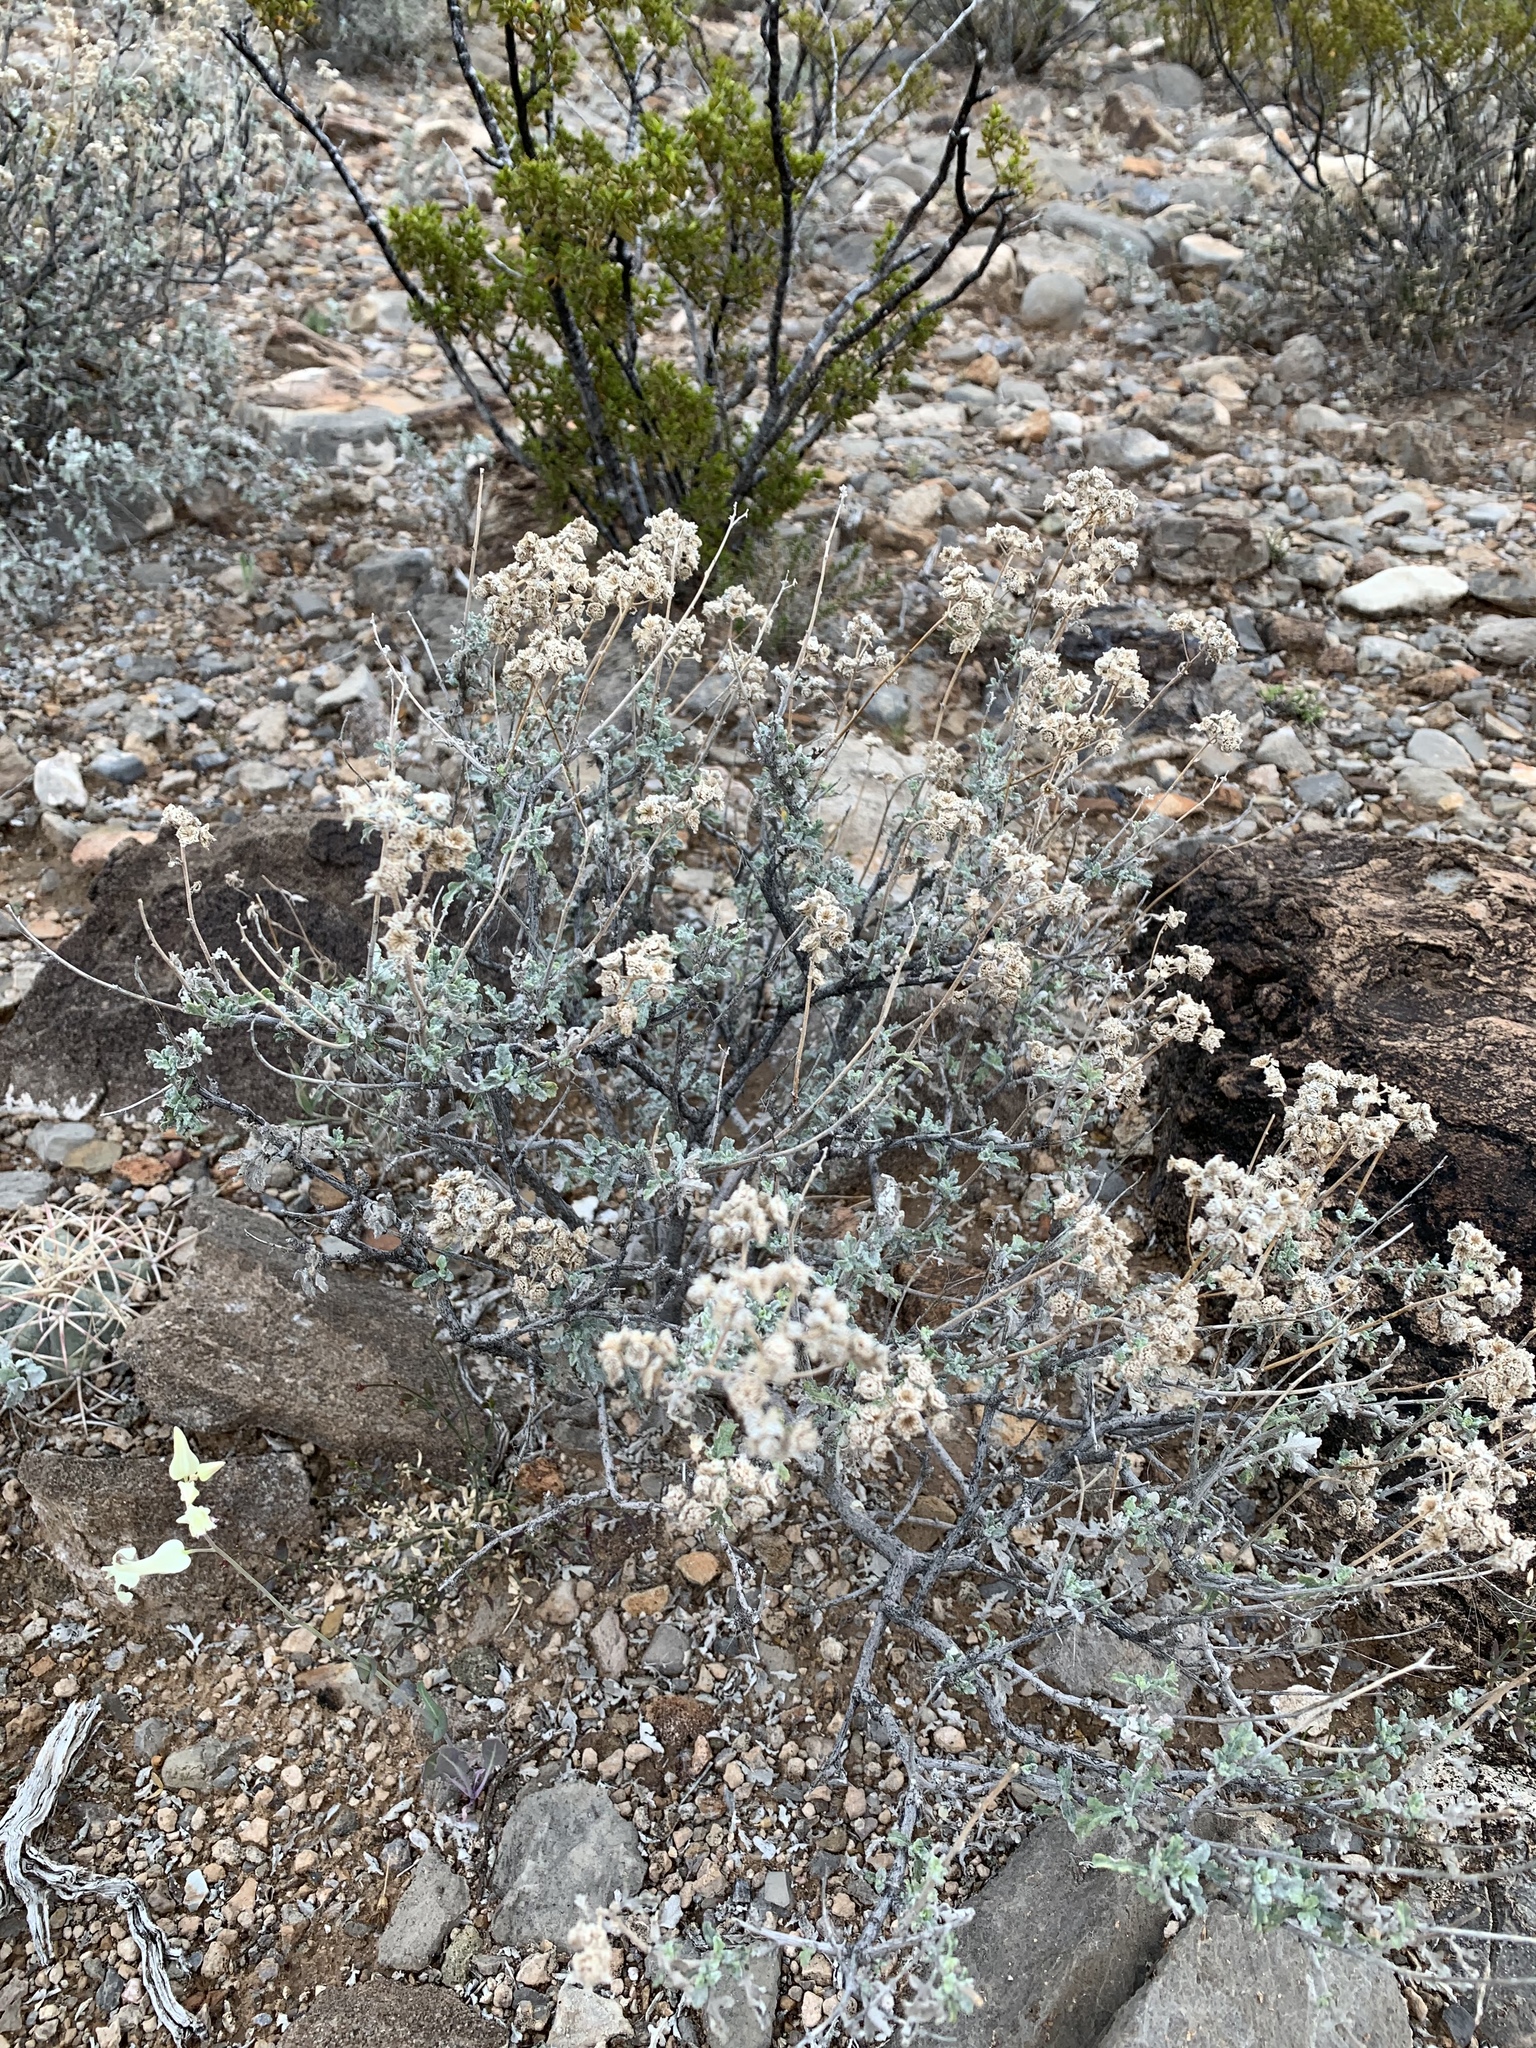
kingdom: Plantae
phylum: Tracheophyta
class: Magnoliopsida
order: Asterales
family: Asteraceae
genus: Parthenium
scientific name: Parthenium incanum
